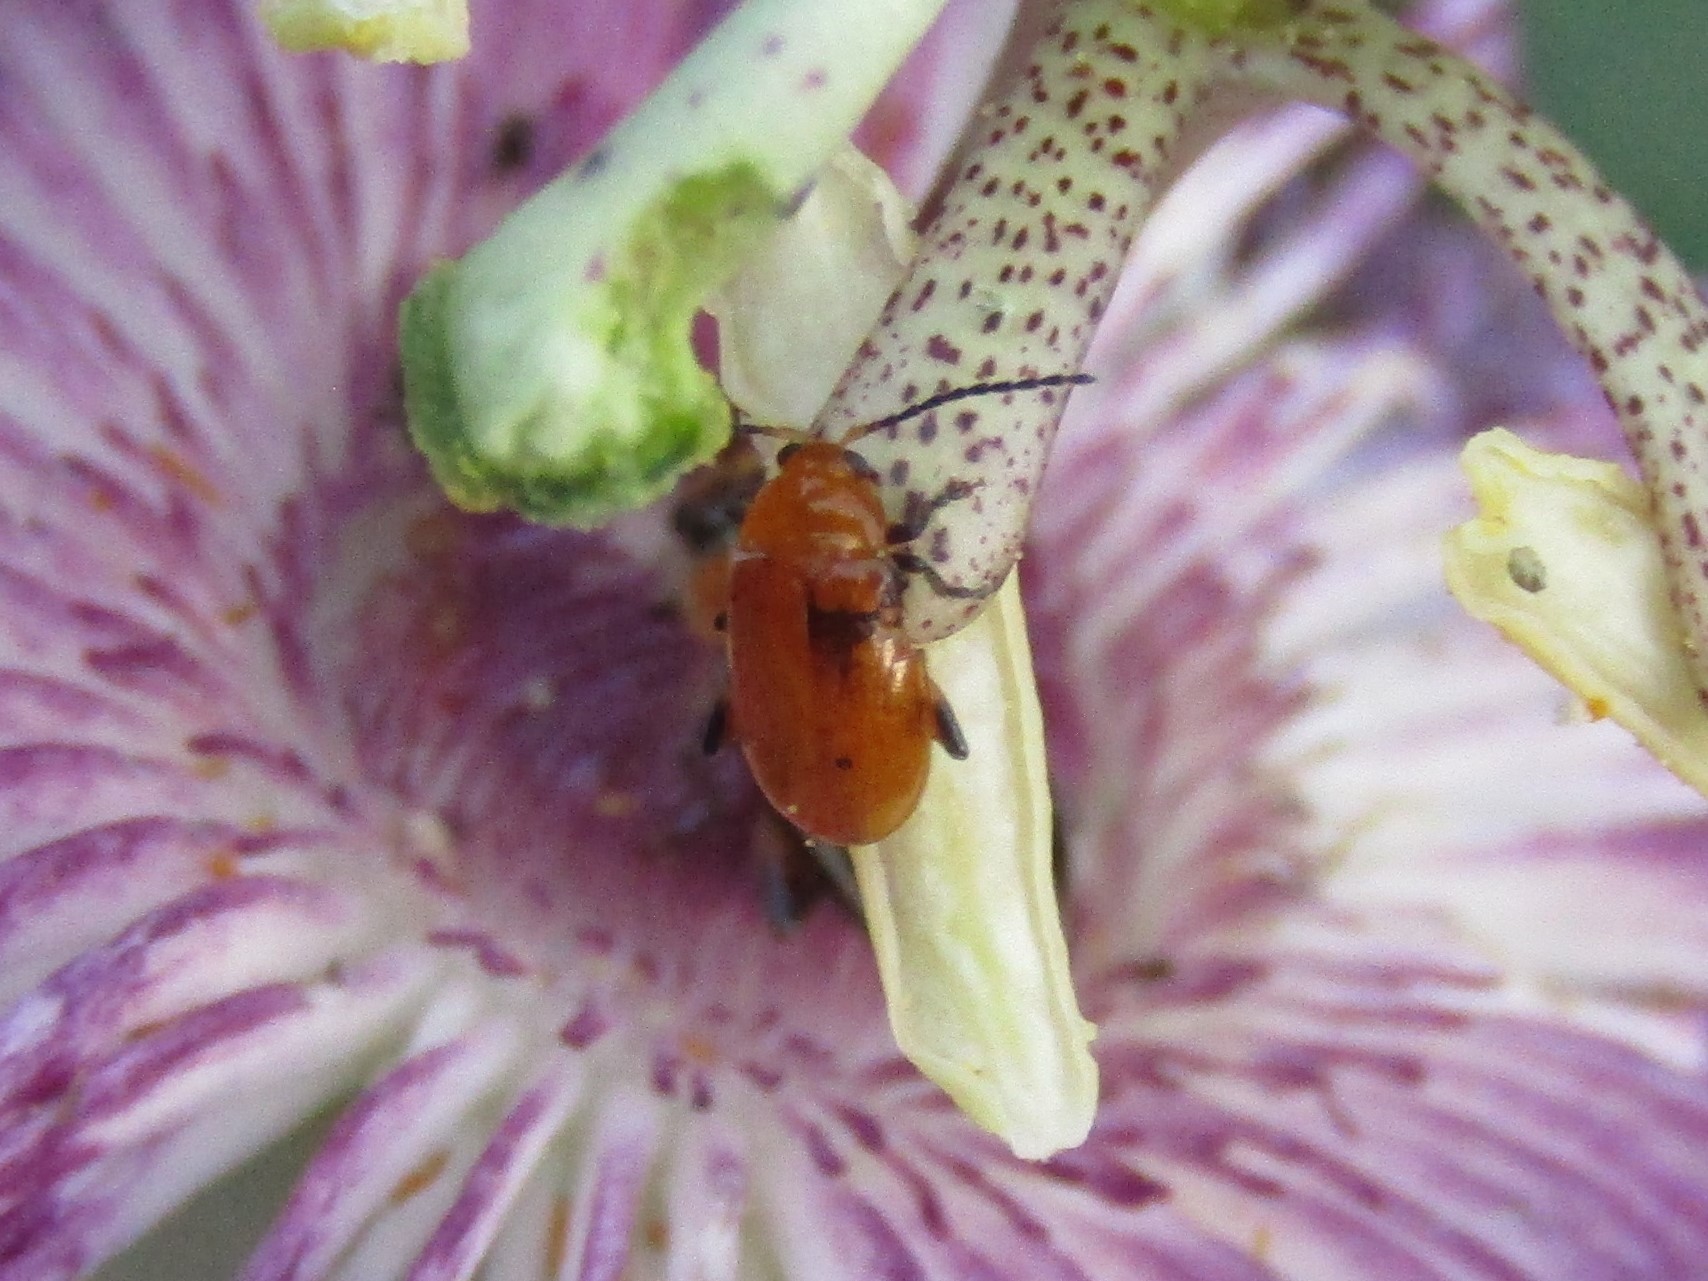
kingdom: Animalia
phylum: Arthropoda
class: Insecta
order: Coleoptera
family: Chrysomelidae
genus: Parchicola
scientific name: Parchicola tibialis
